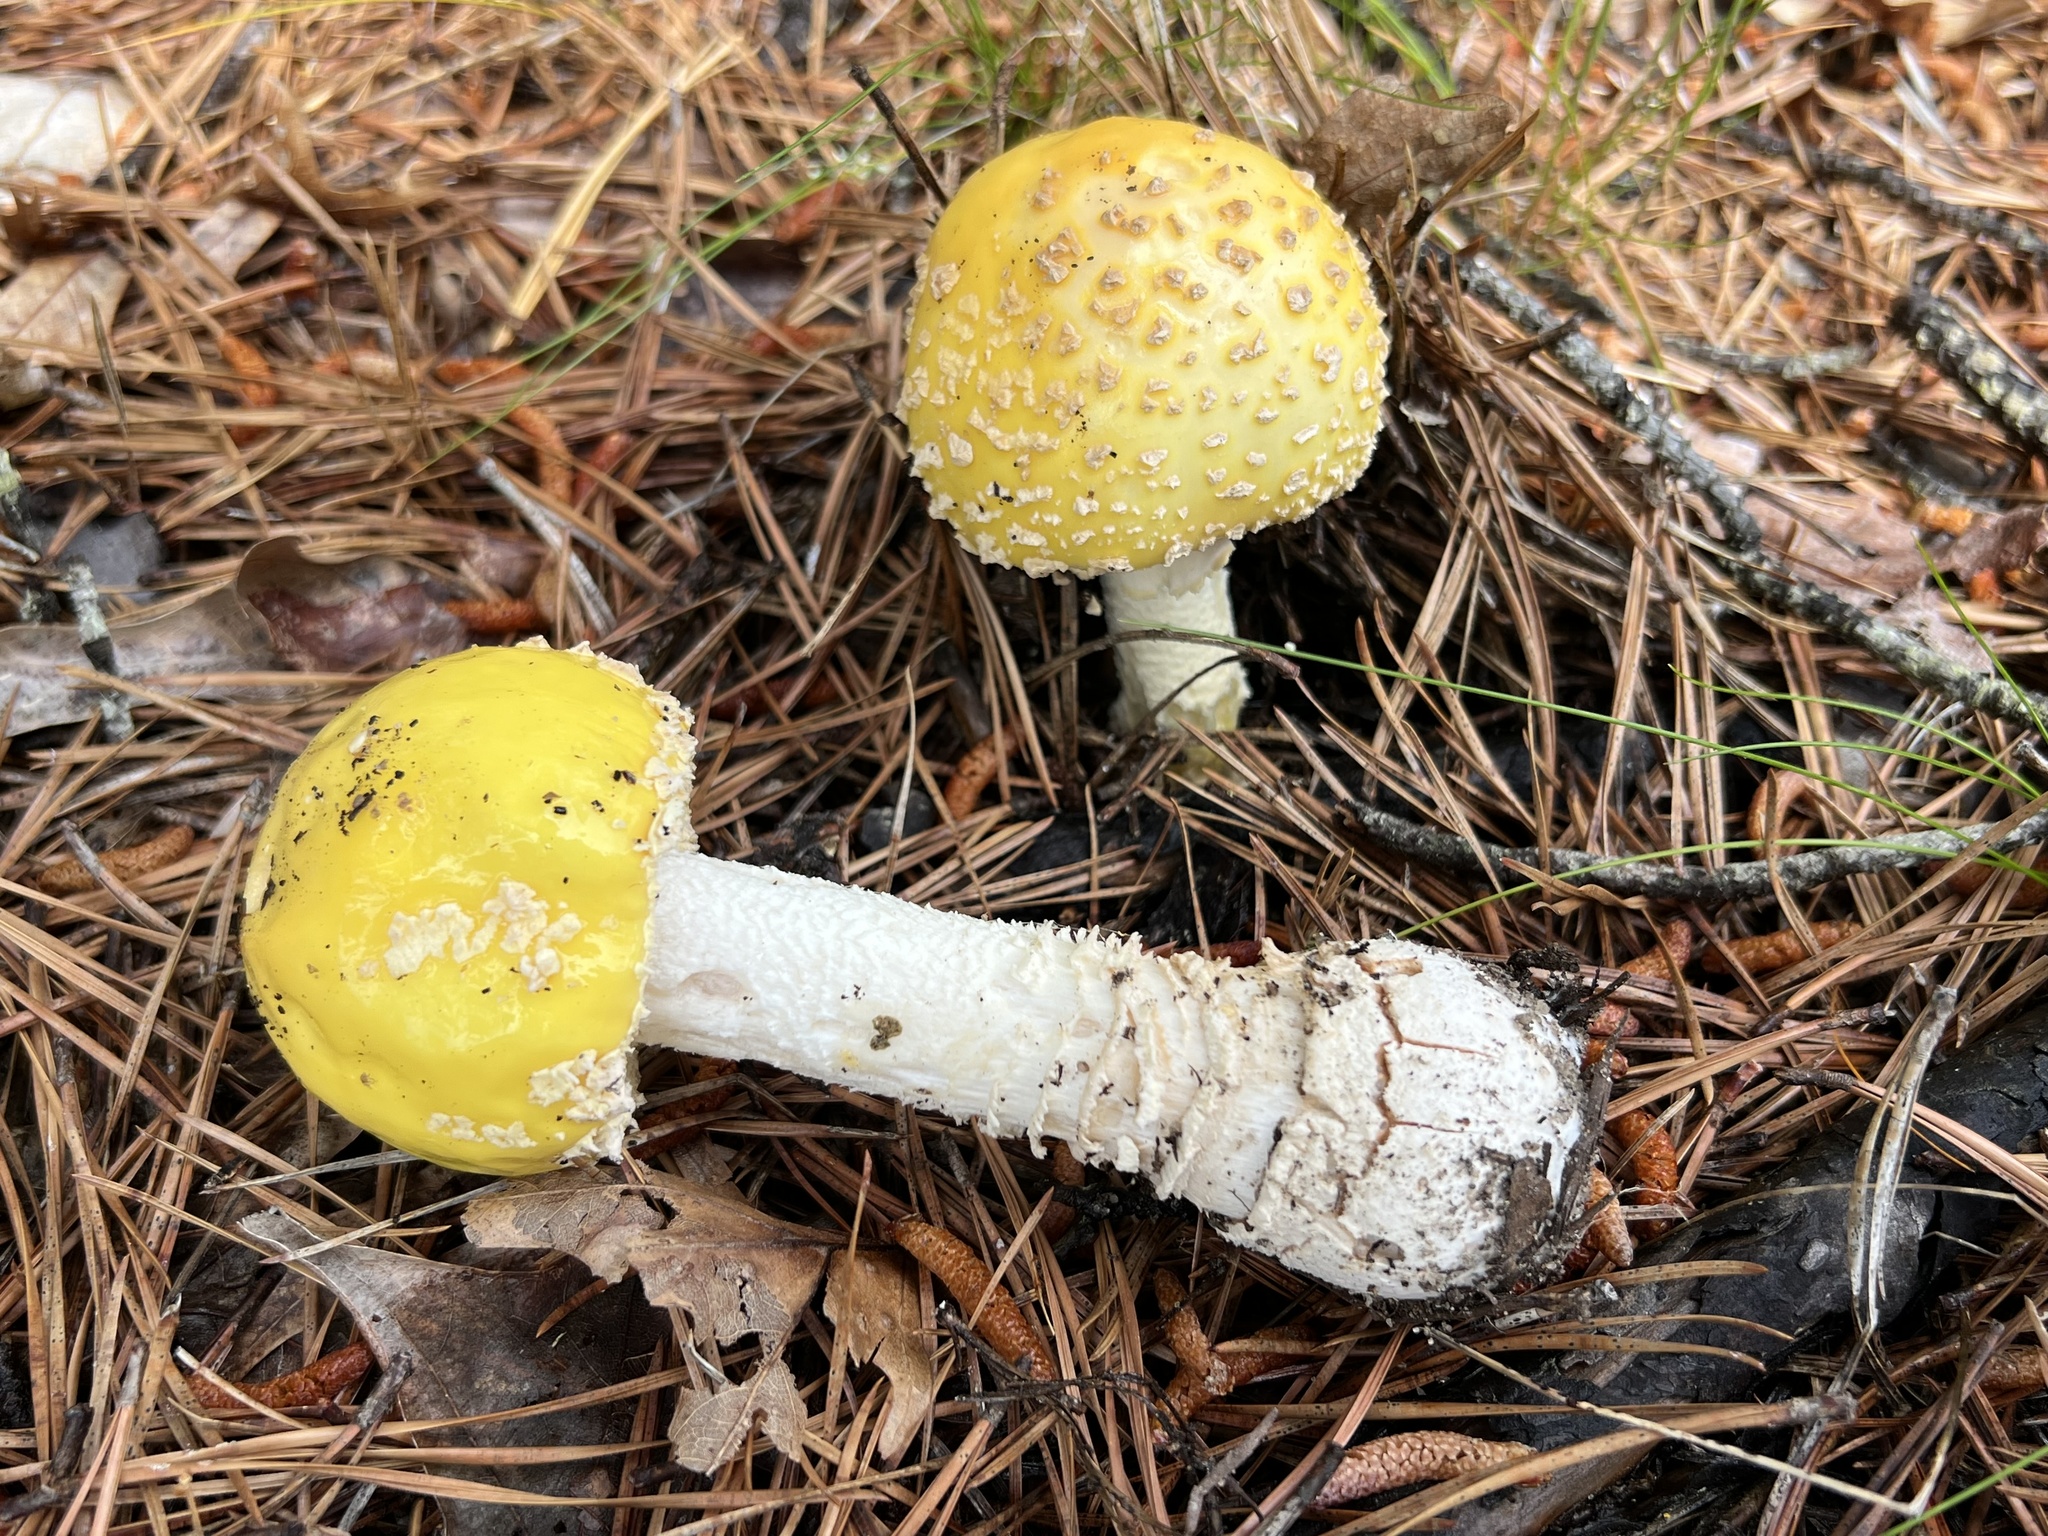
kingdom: Fungi
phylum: Basidiomycota
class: Agaricomycetes
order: Agaricales
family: Amanitaceae
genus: Amanita
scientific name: Amanita muscaria
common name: Fly agaric
